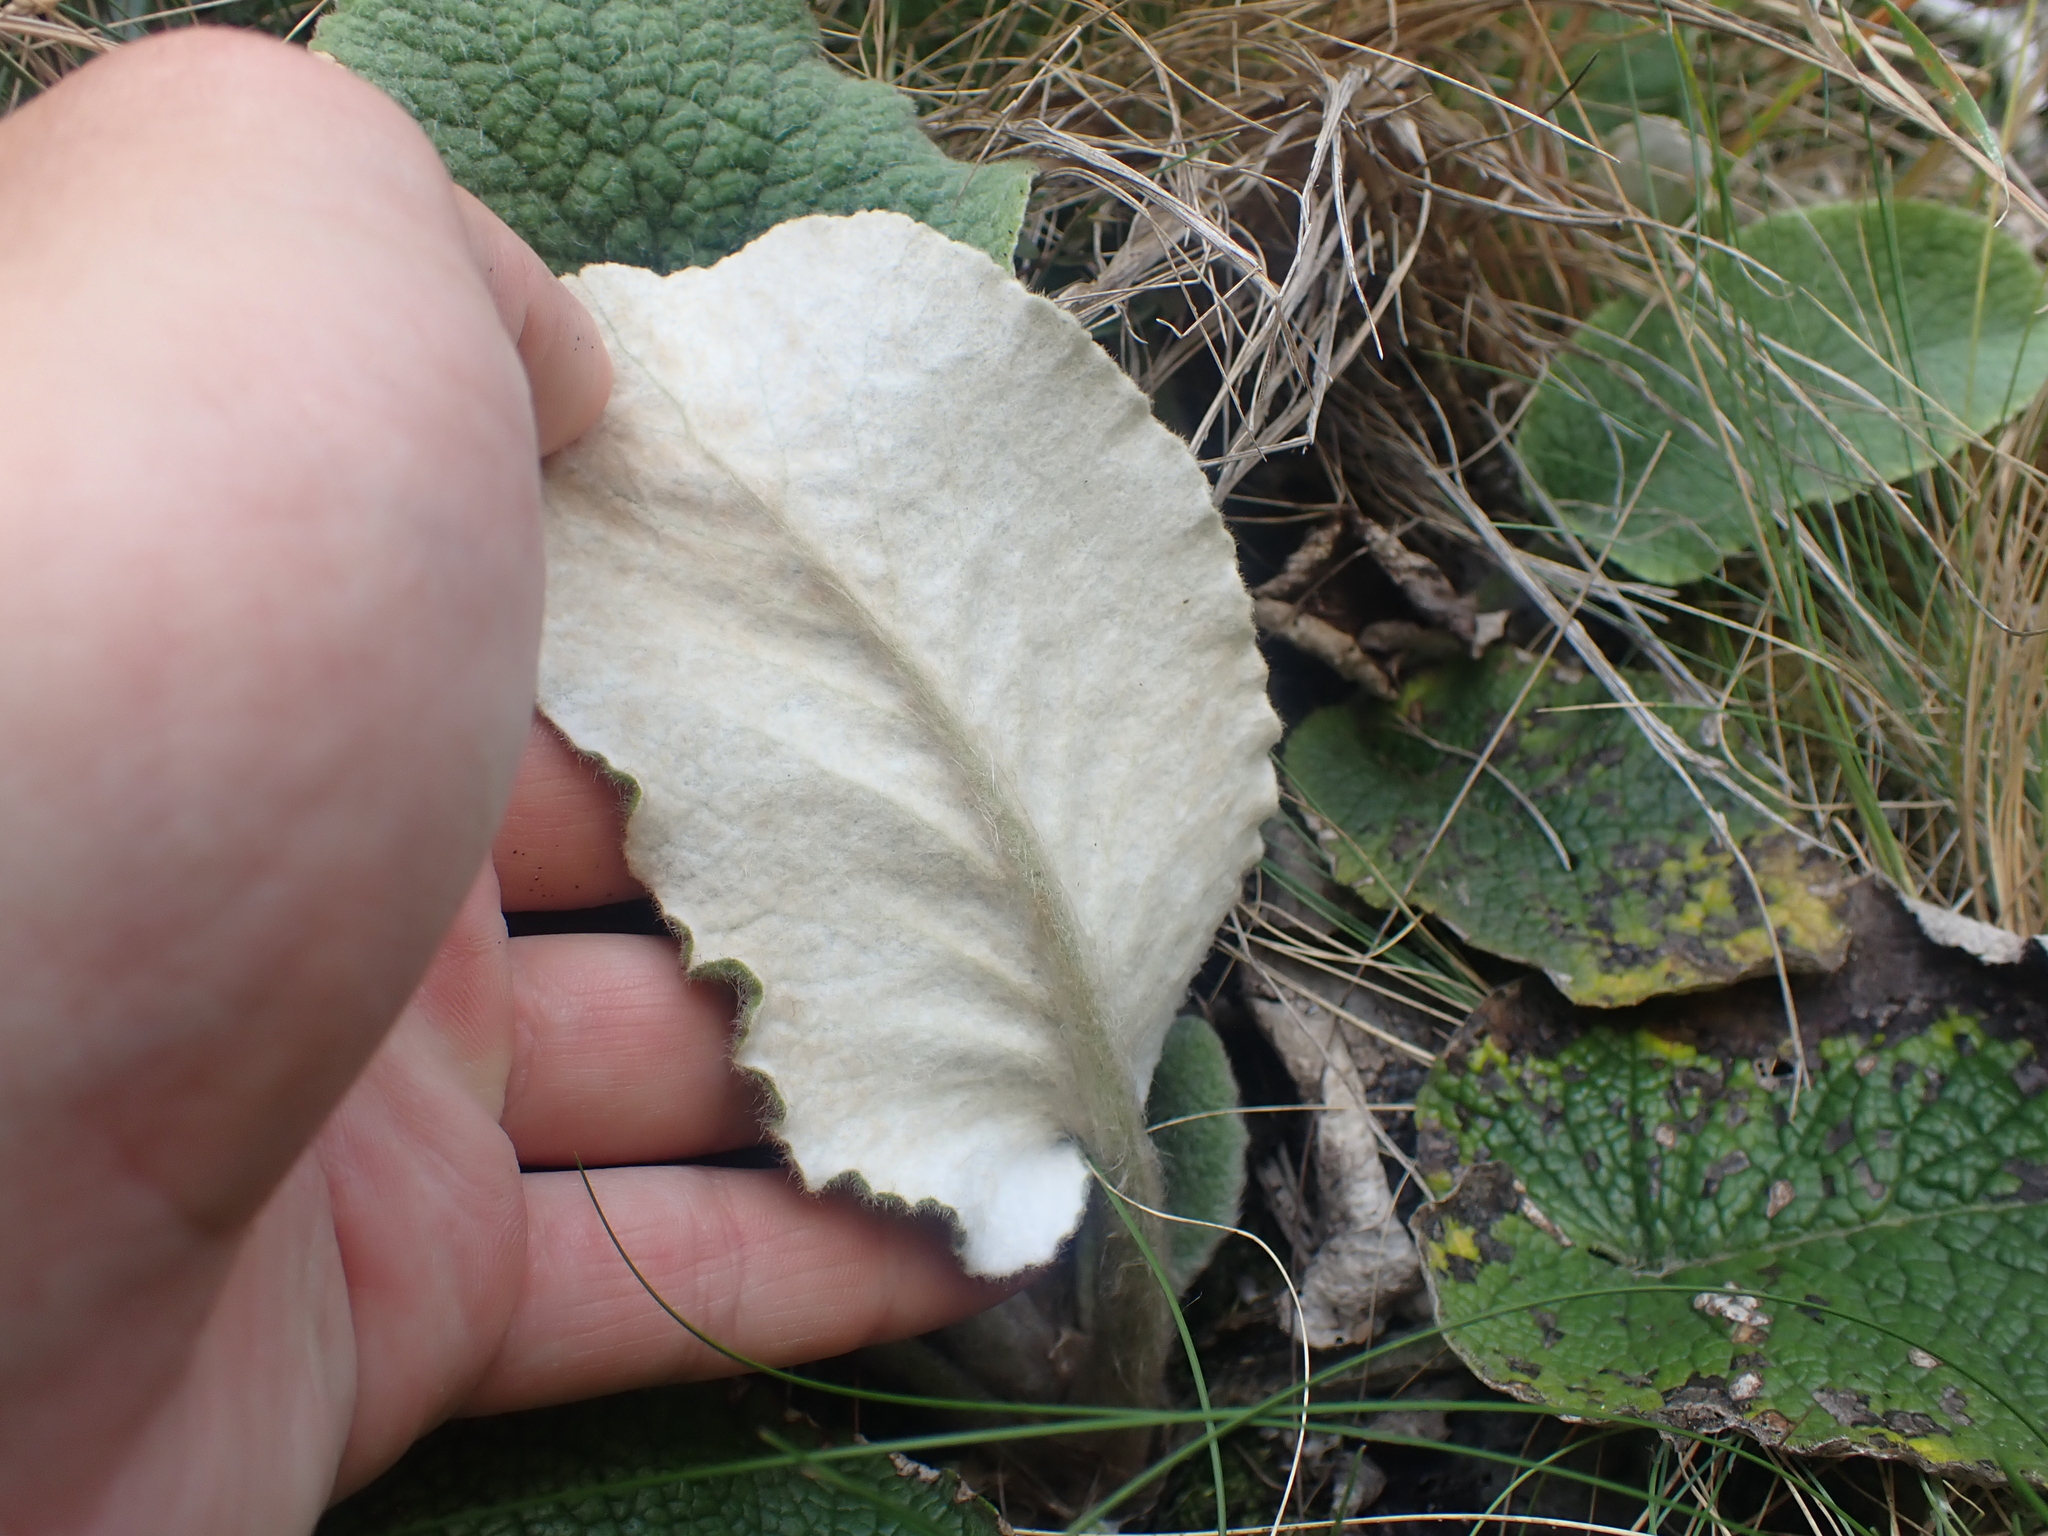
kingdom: Plantae
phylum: Tracheophyta
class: Magnoliopsida
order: Asterales
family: Asteraceae
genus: Brachyglottis
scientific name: Brachyglottis lagopus
